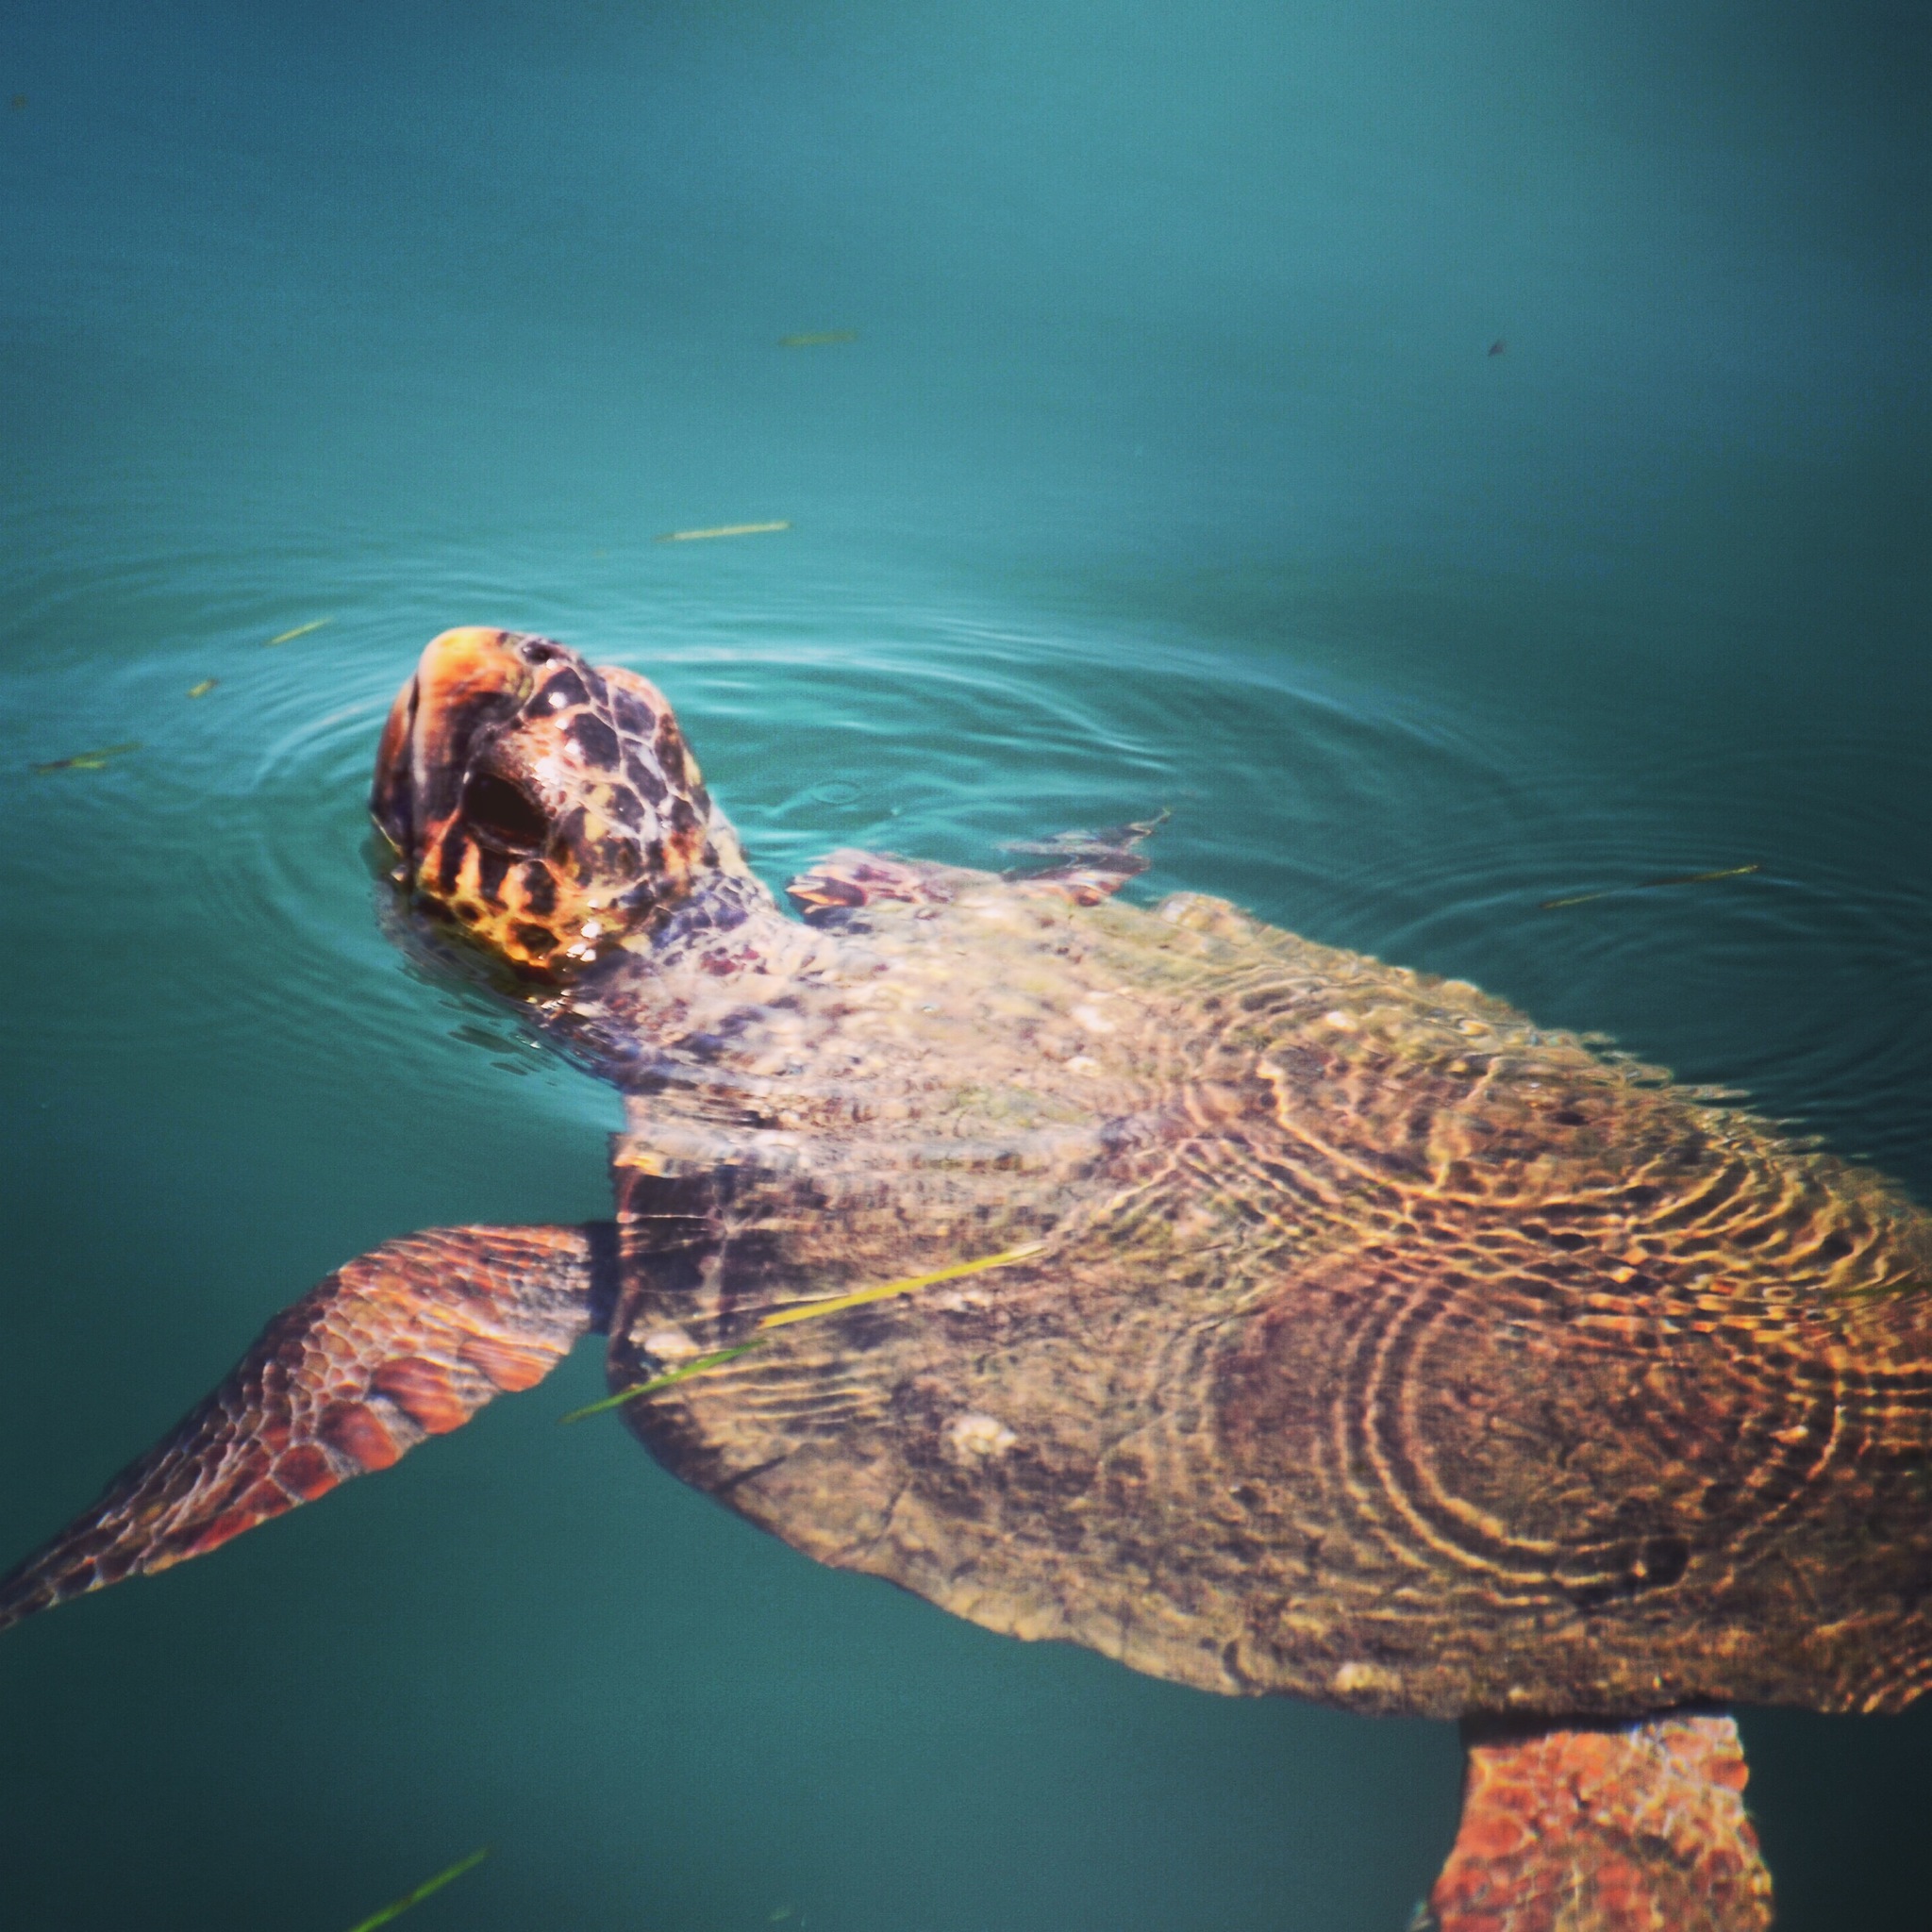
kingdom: Animalia
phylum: Chordata
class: Testudines
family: Cheloniidae
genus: Caretta
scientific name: Caretta caretta
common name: Loggerhead sea turtle
